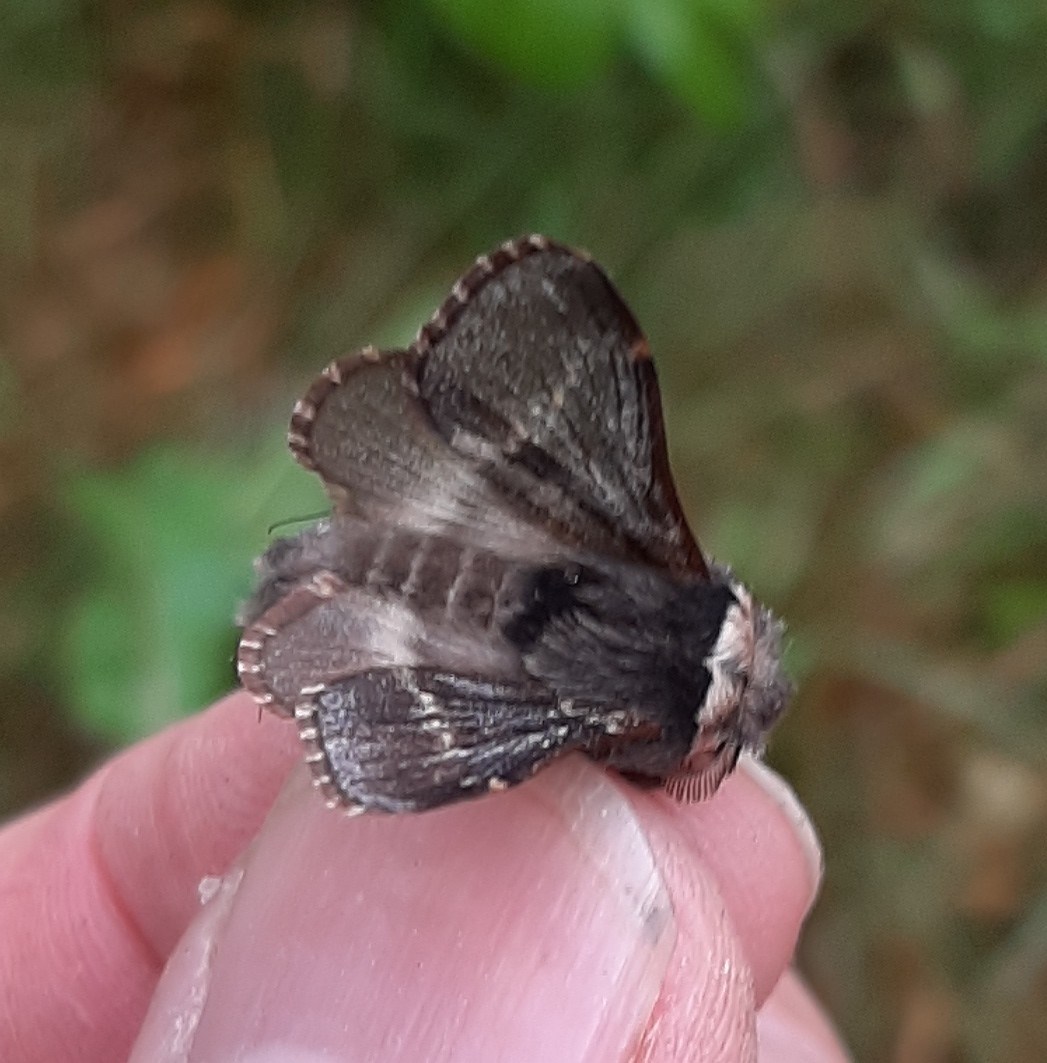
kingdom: Animalia
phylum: Arthropoda
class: Insecta
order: Lepidoptera
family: Lasiocampidae
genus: Poecilocampa
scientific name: Poecilocampa populi
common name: December moth
